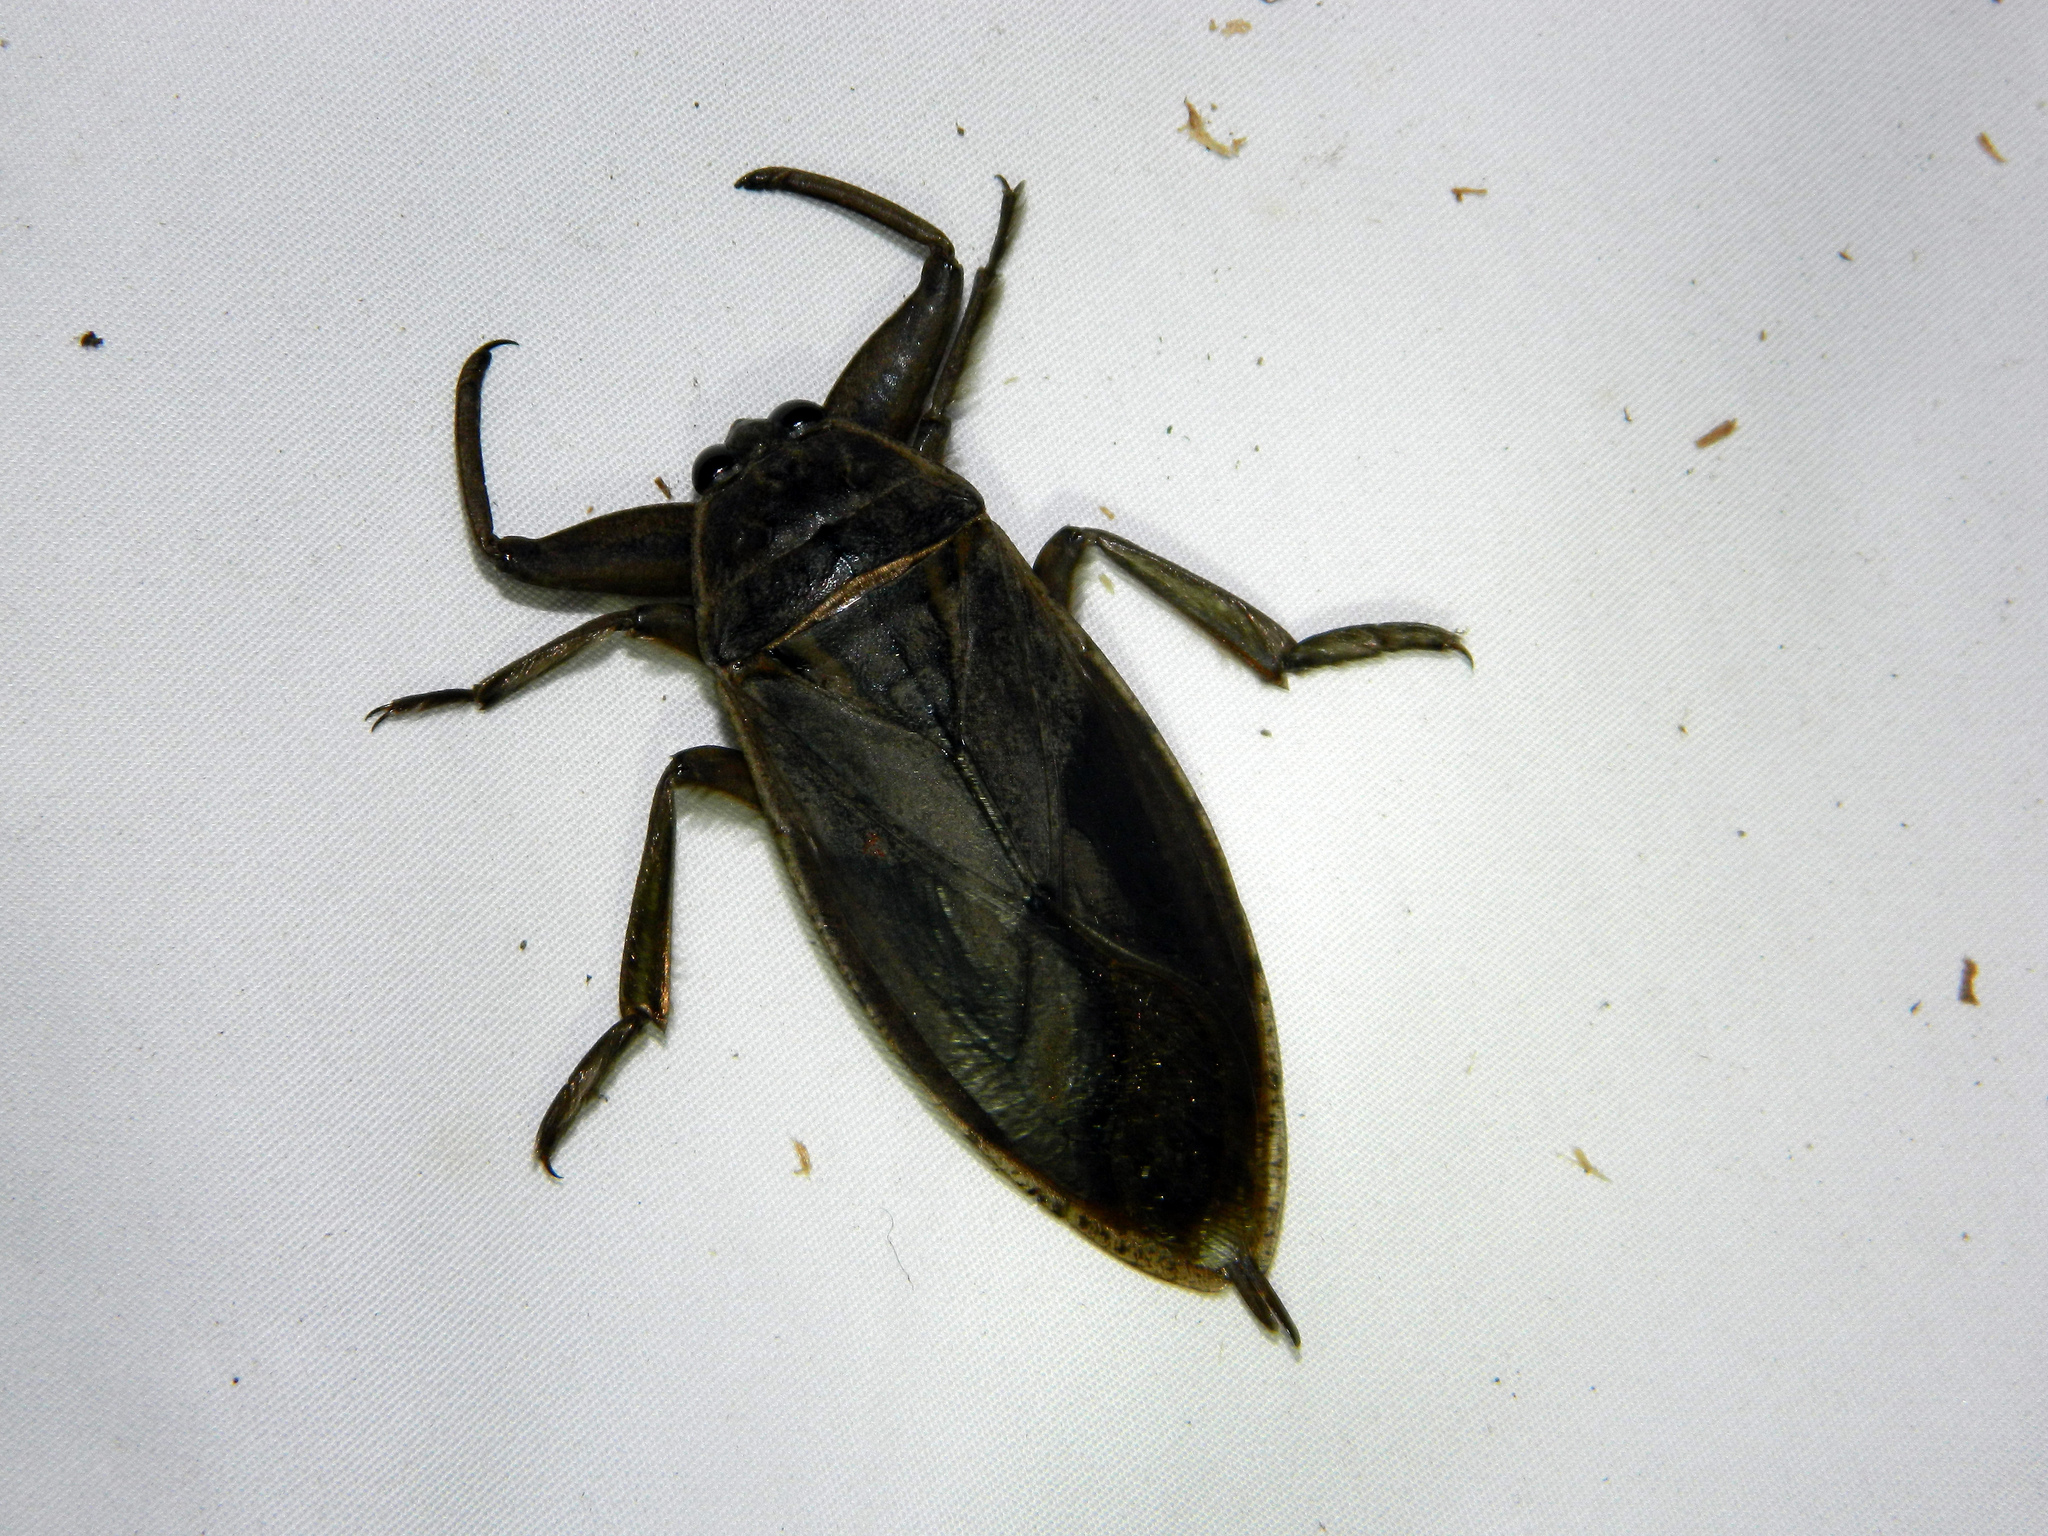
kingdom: Animalia
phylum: Arthropoda
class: Insecta
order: Hemiptera
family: Belostomatidae
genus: Lethocerus
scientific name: Lethocerus americanus
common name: Giant water bug
